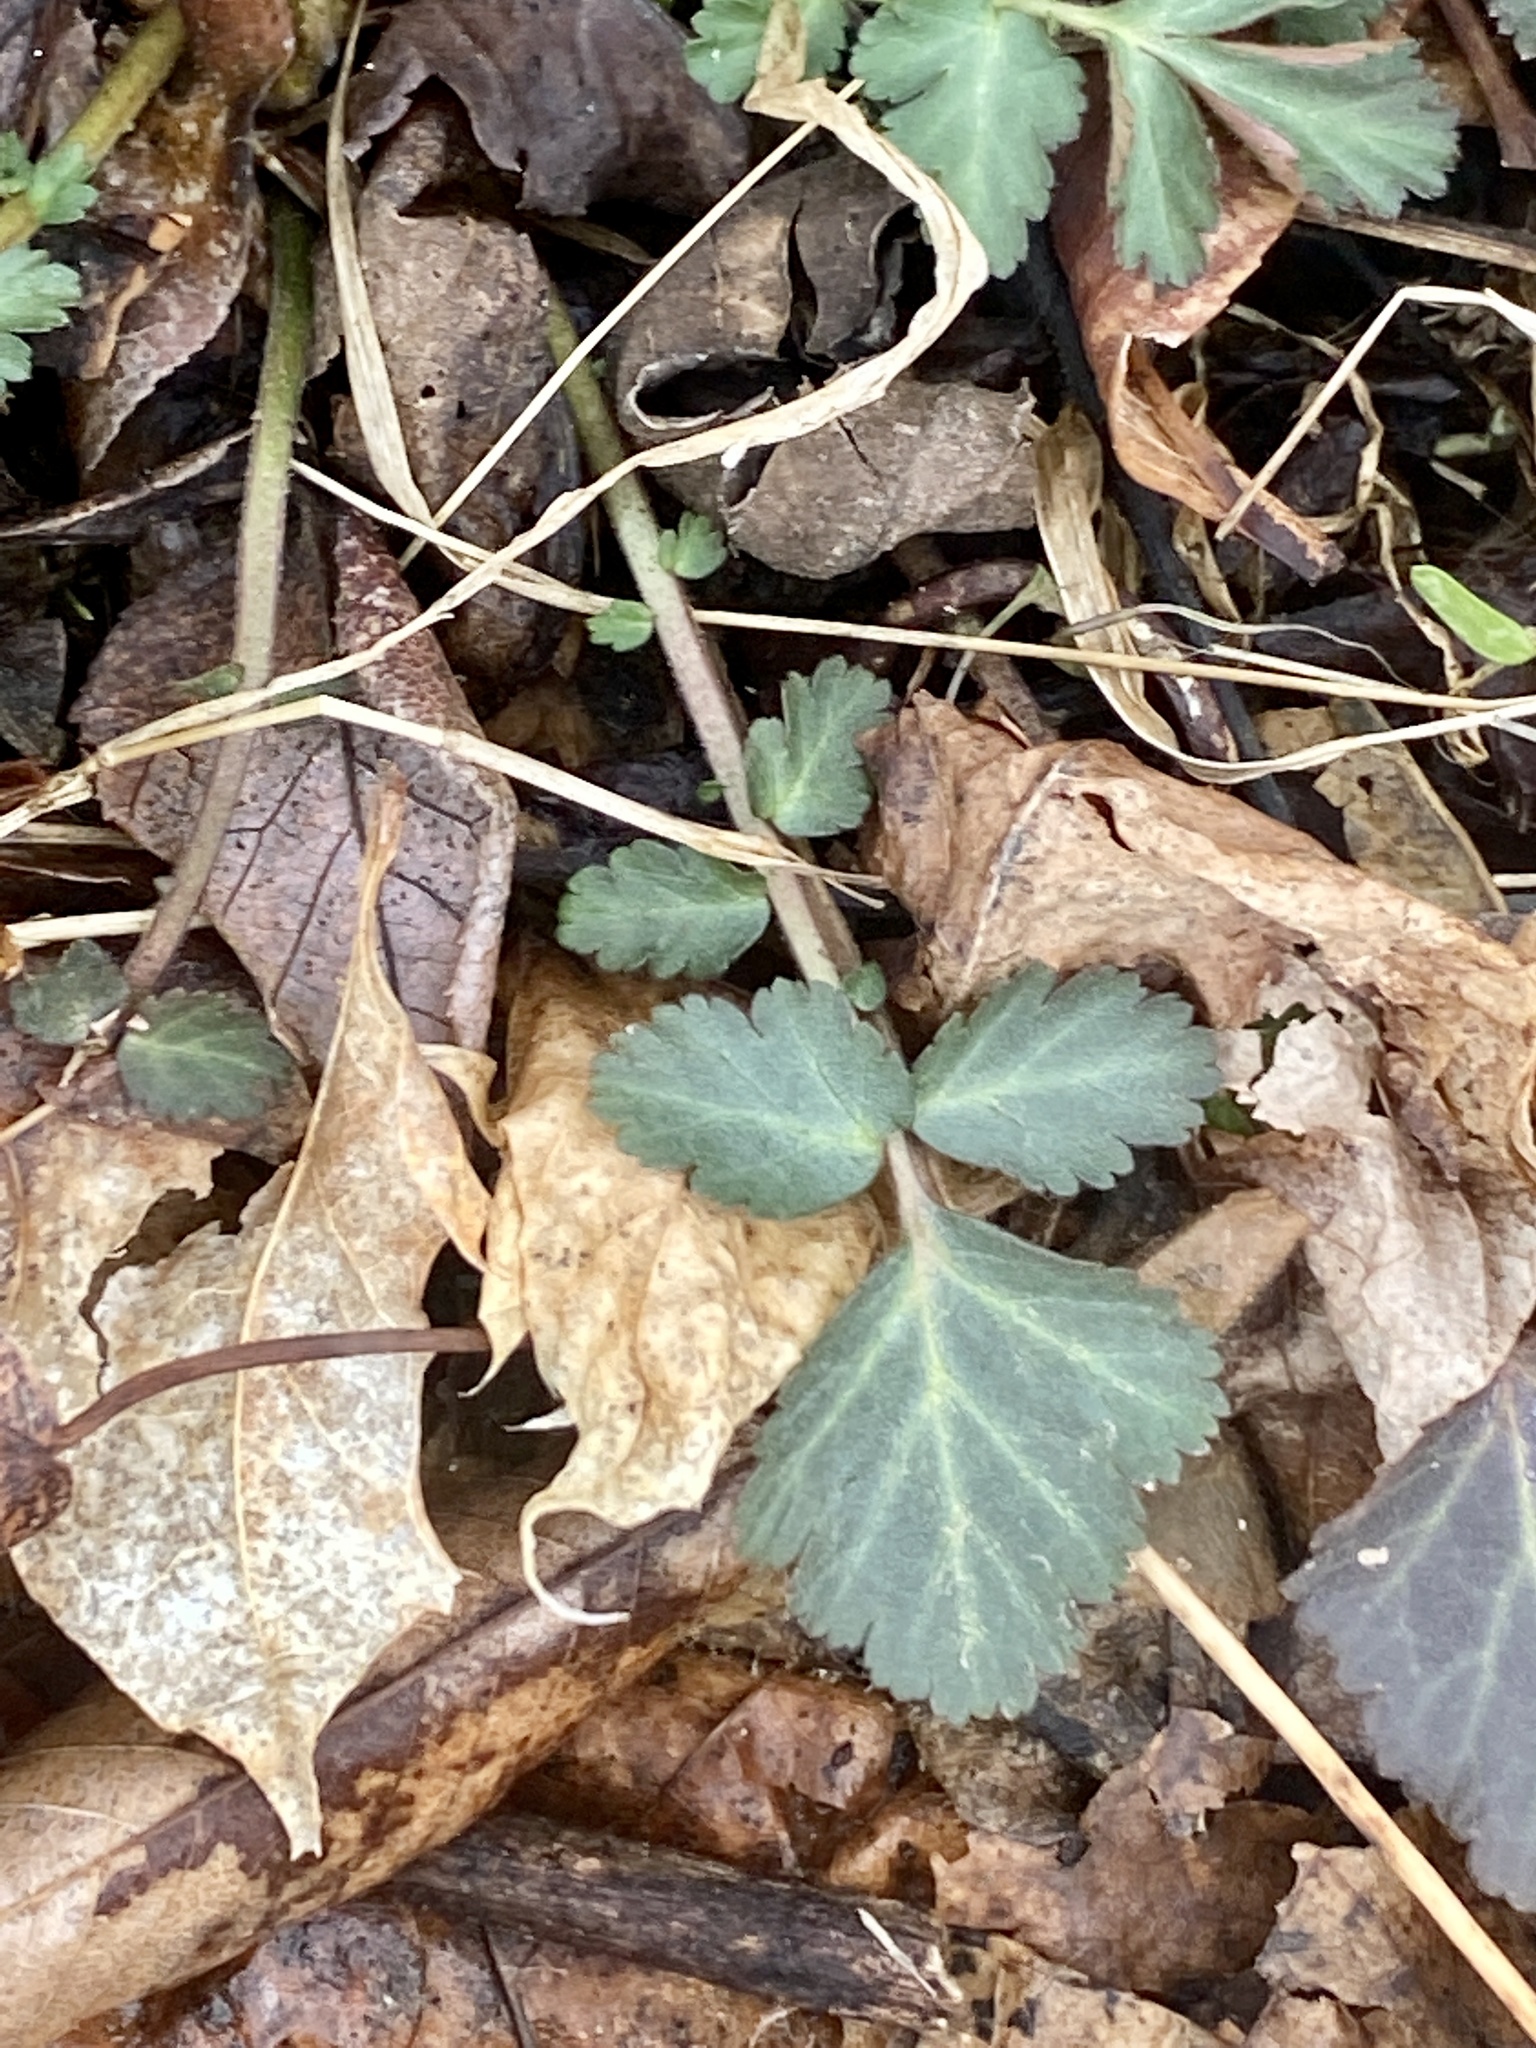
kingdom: Plantae
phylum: Tracheophyta
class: Magnoliopsida
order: Rosales
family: Rosaceae
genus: Geum
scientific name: Geum canadense
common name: White avens
